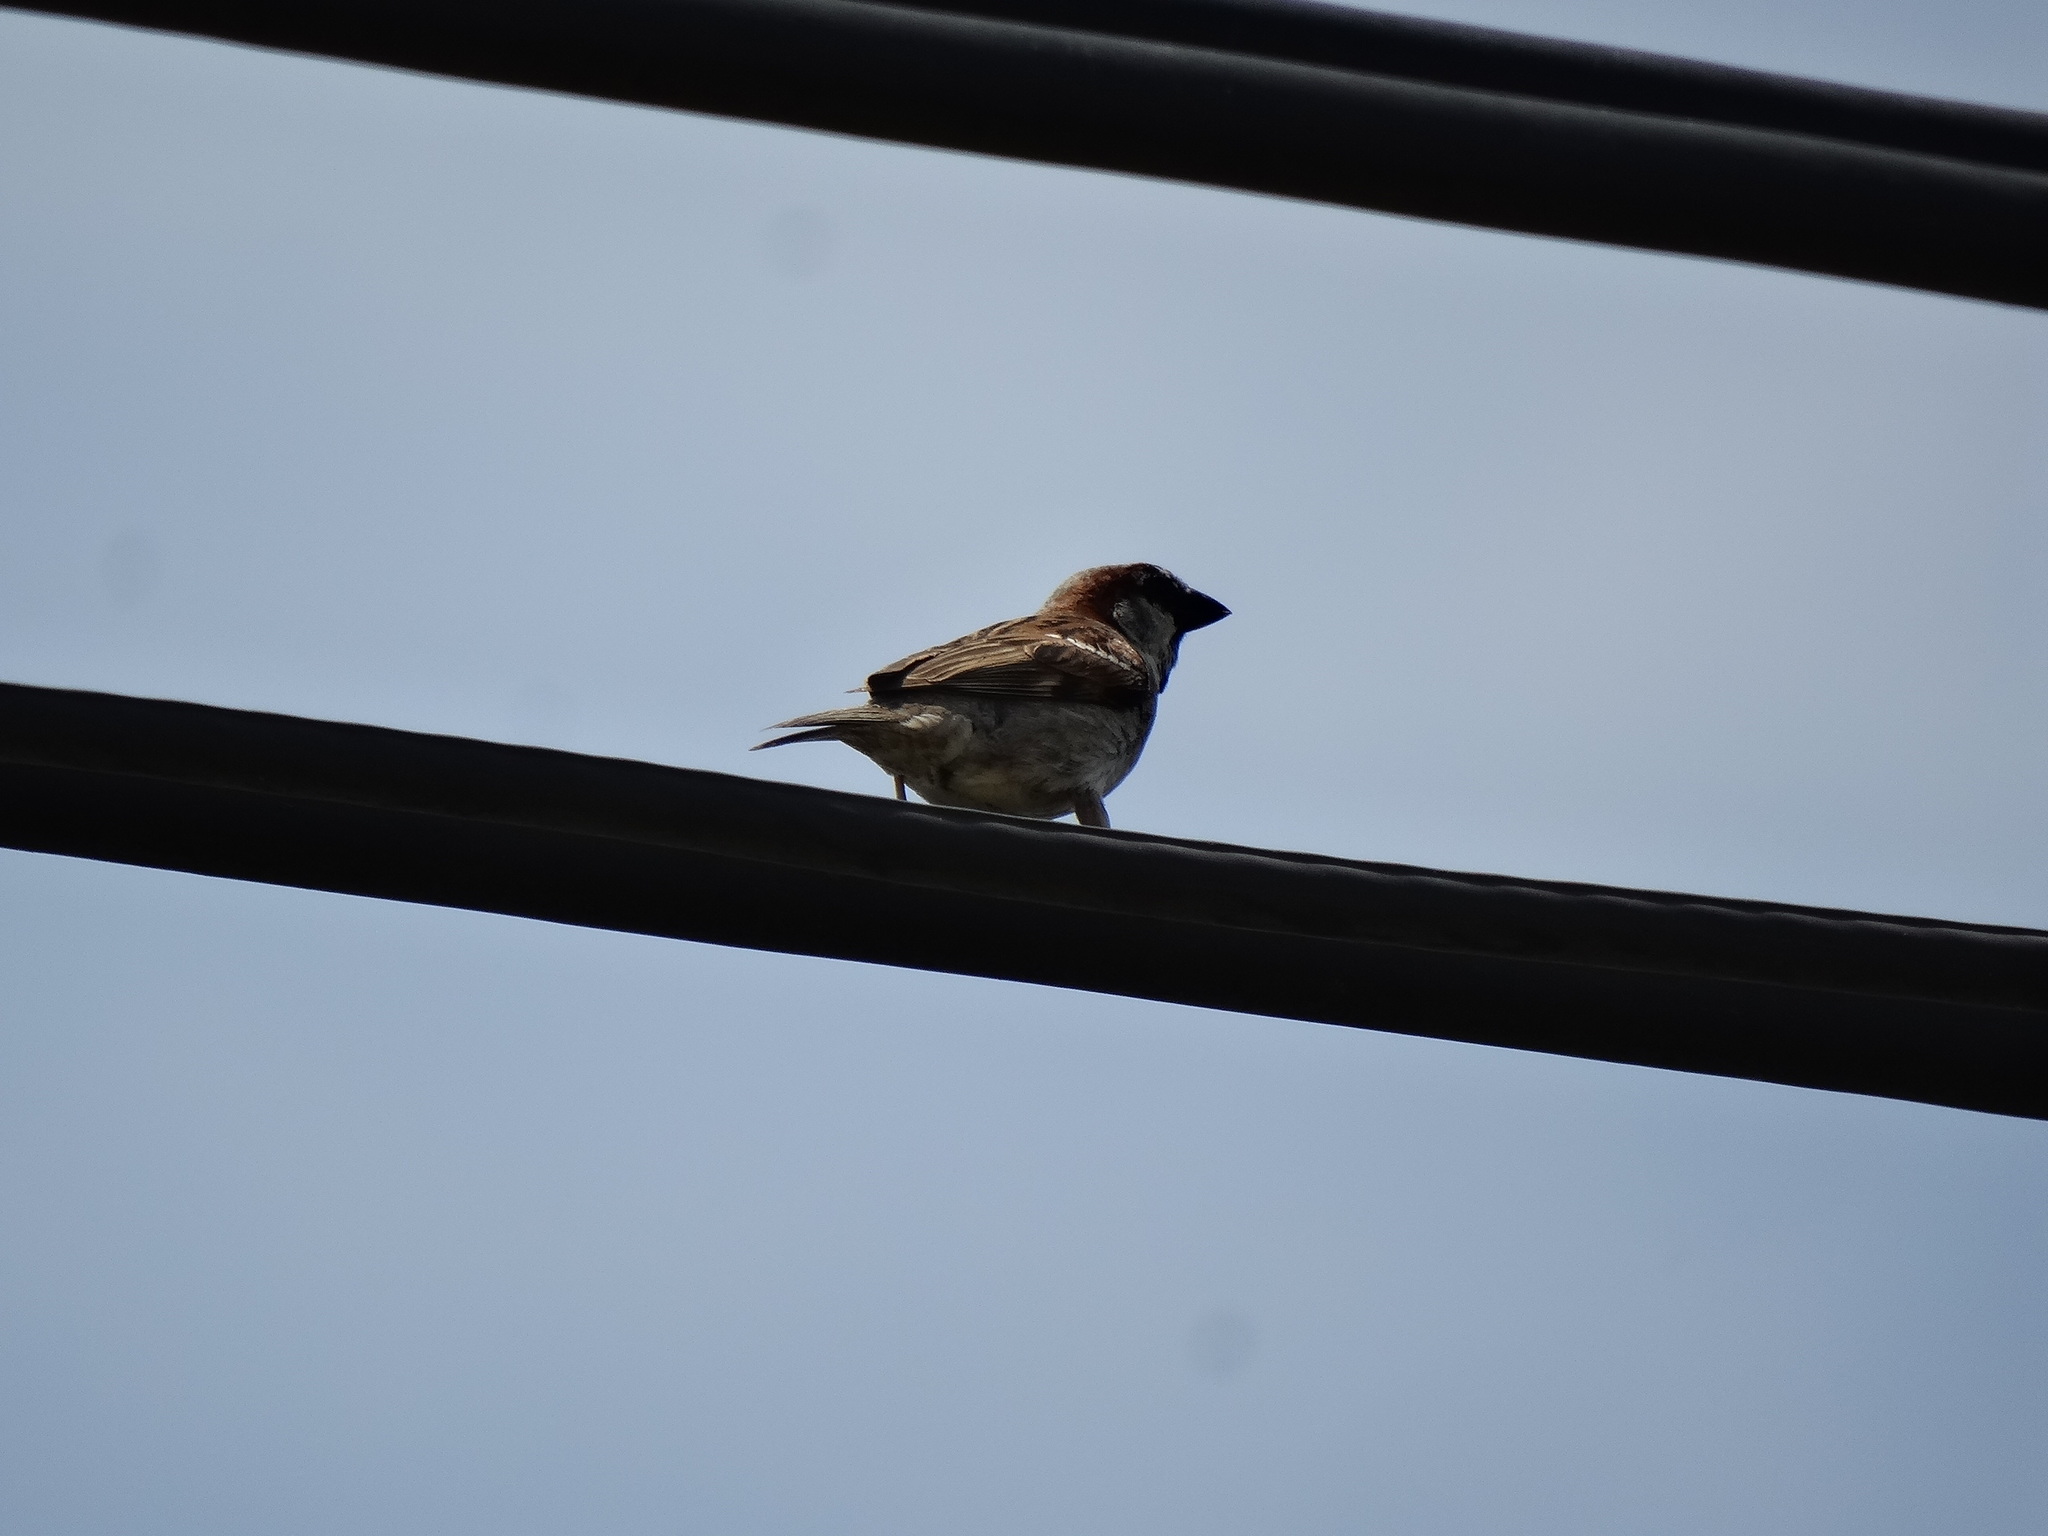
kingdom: Animalia
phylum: Chordata
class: Aves
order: Passeriformes
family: Passeridae
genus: Passer
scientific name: Passer domesticus
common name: House sparrow
